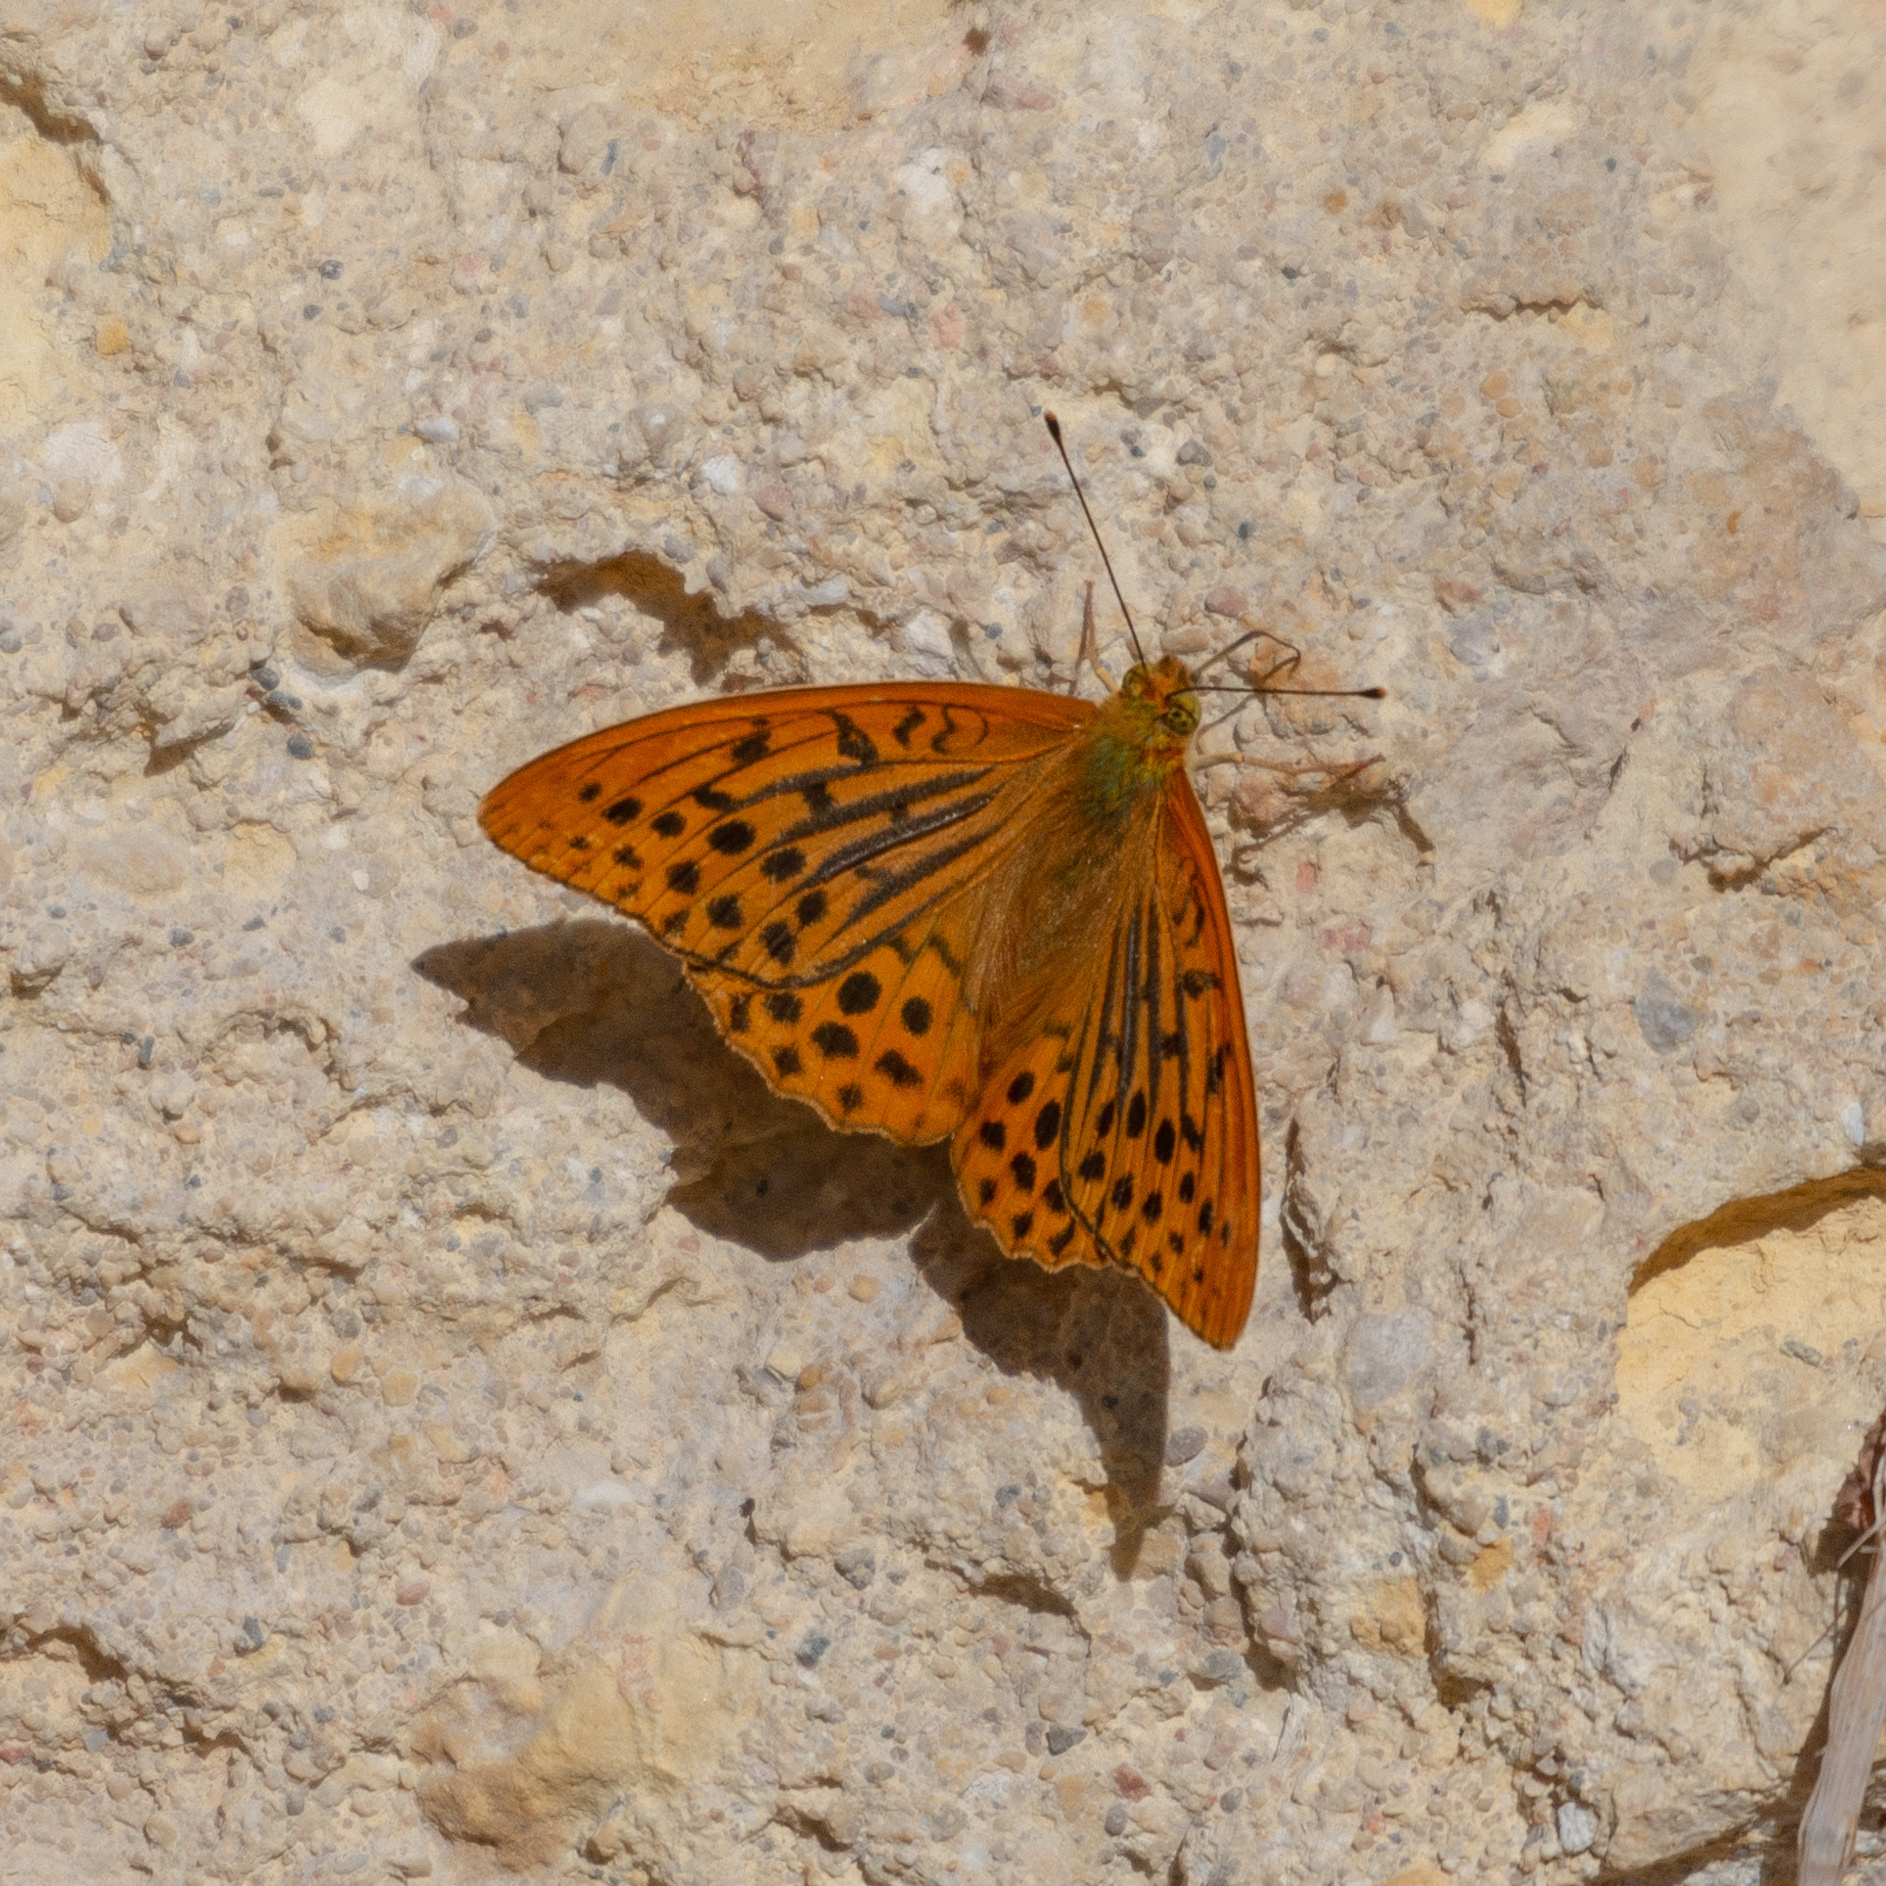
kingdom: Animalia
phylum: Arthropoda
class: Insecta
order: Lepidoptera
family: Nymphalidae
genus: Argynnis
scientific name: Argynnis paphia
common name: Silver-washed fritillary
